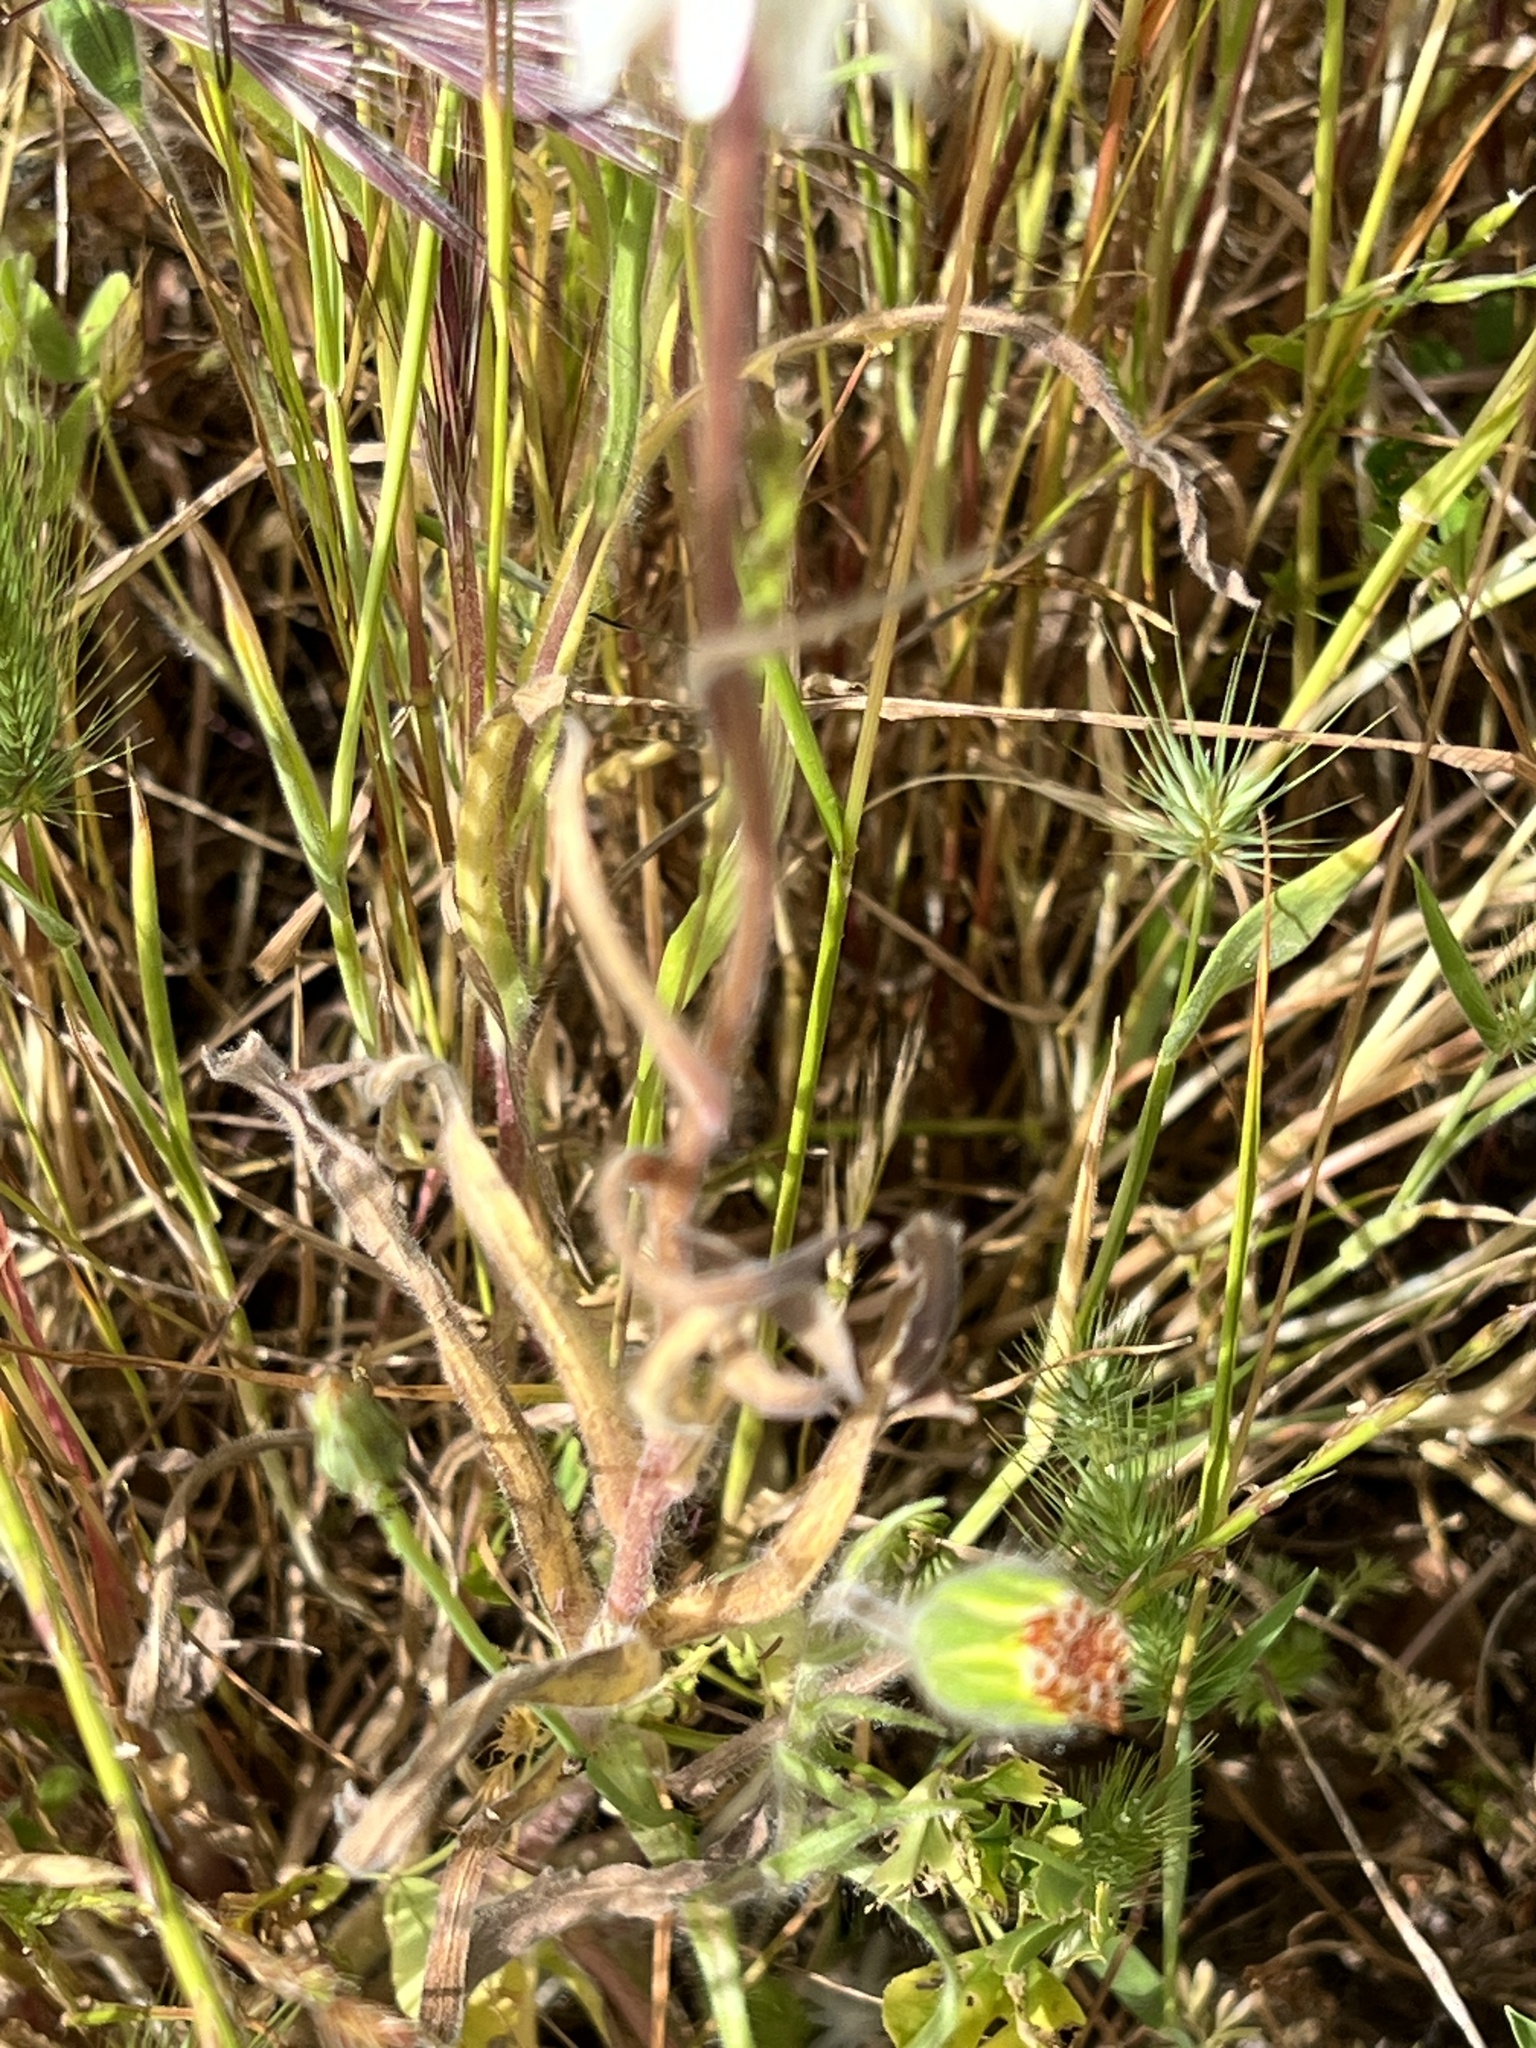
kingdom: Plantae
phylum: Tracheophyta
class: Magnoliopsida
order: Asterales
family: Asteraceae
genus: Achyrachaena
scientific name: Achyrachaena mollis
